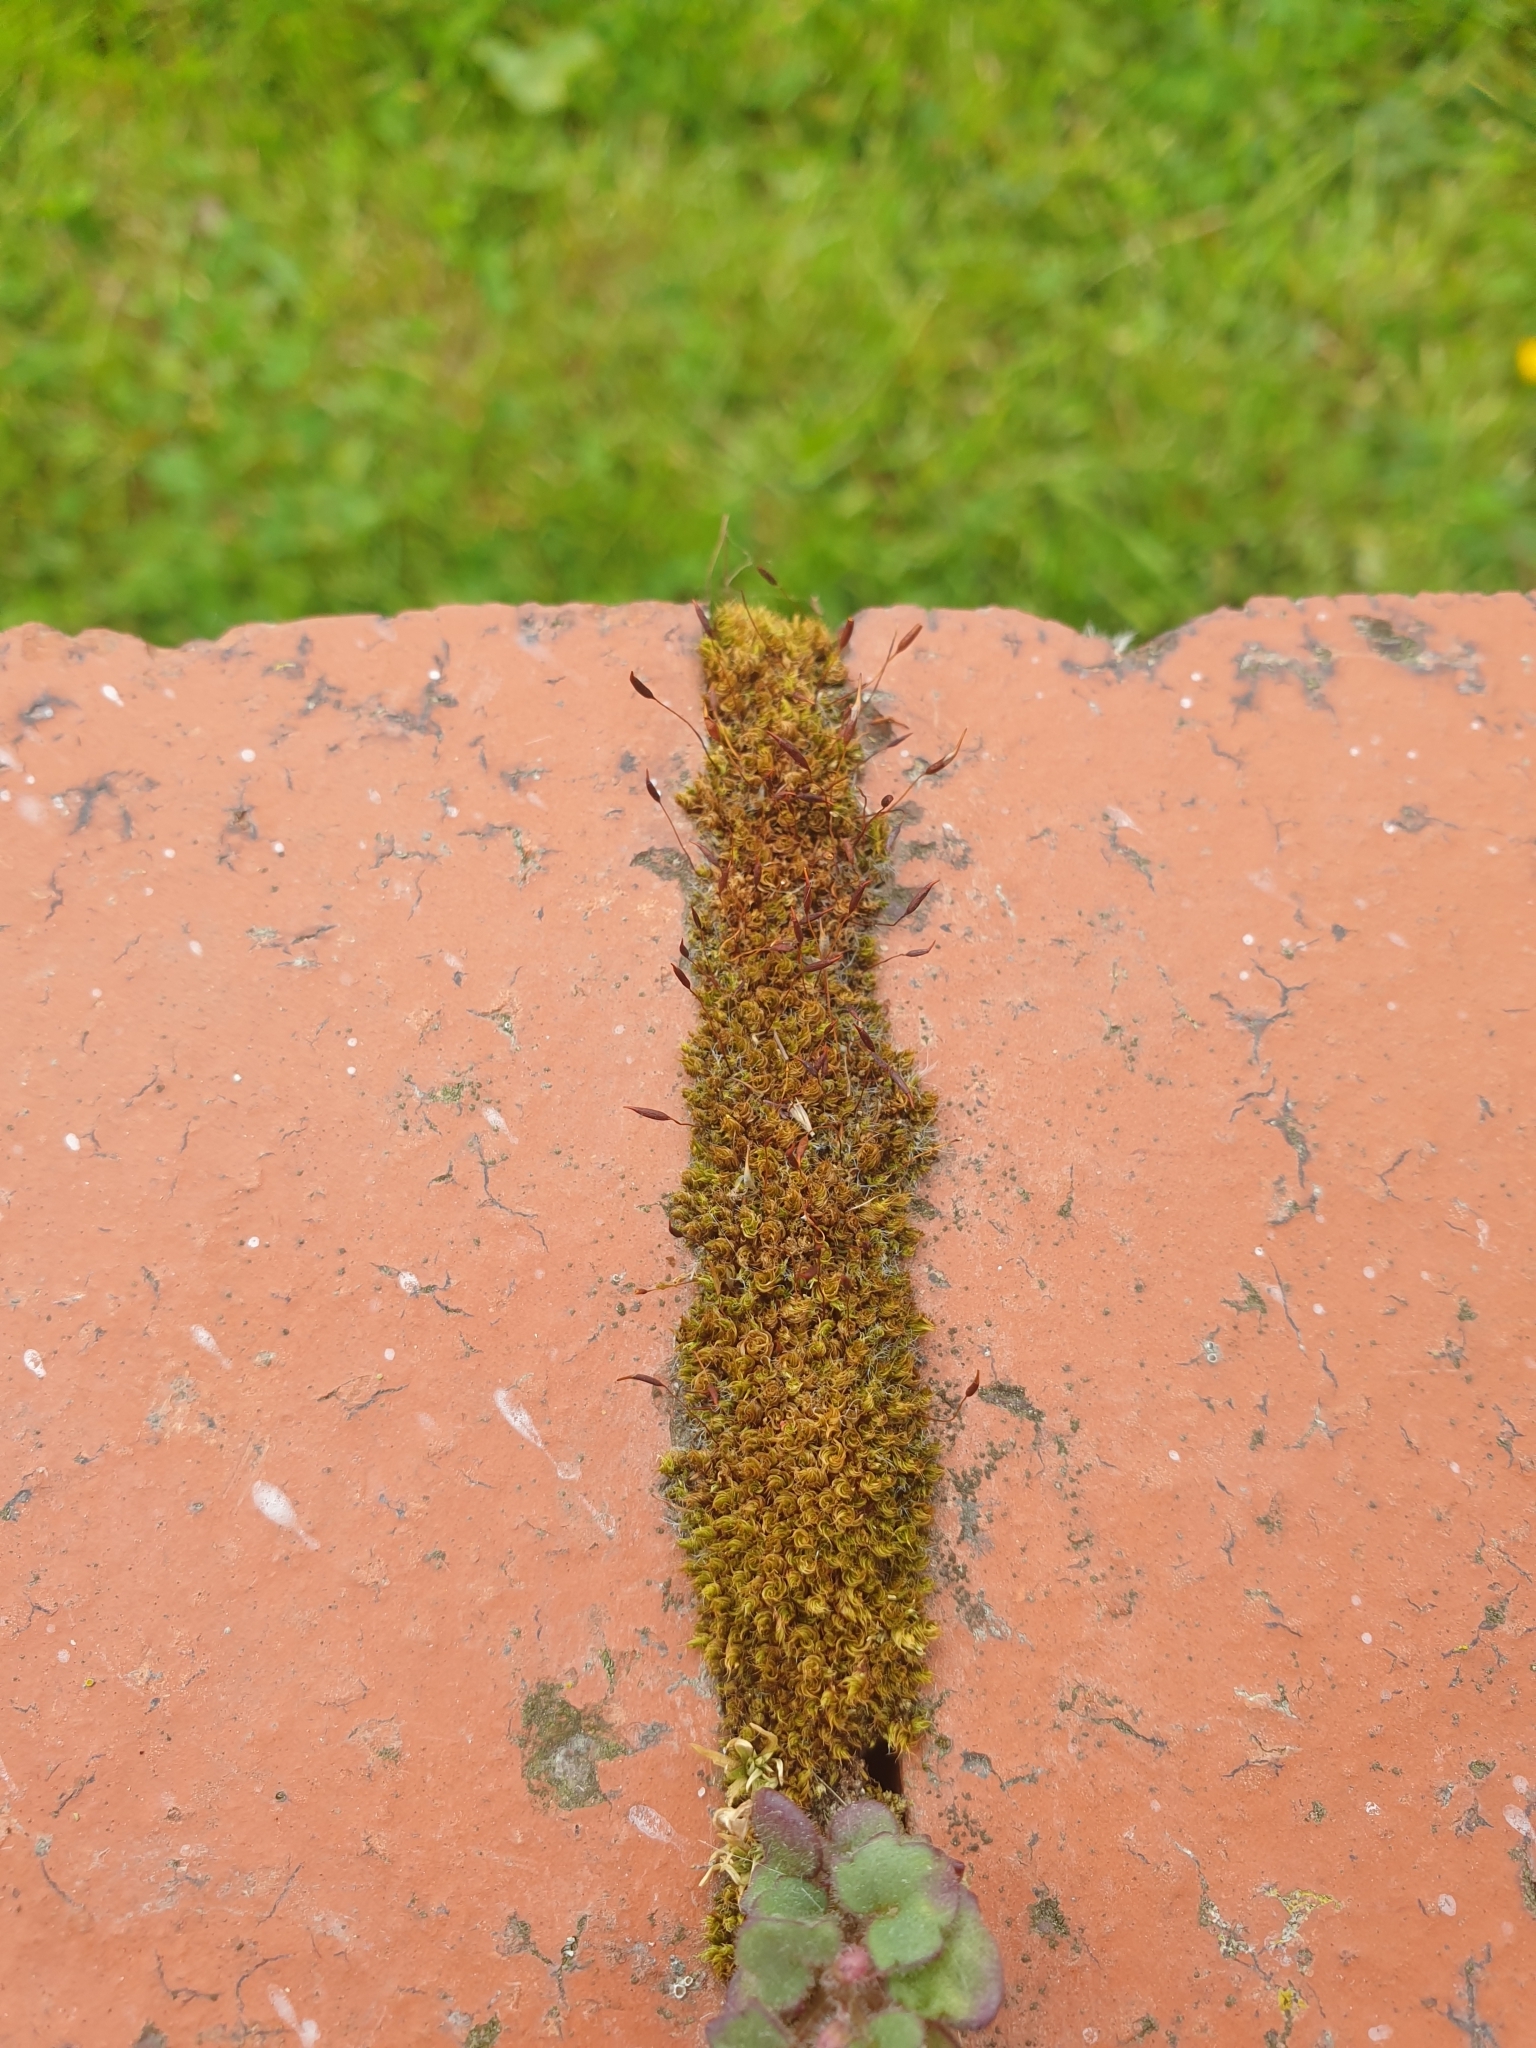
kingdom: Plantae
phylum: Bryophyta
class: Bryopsida
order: Pottiales
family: Pottiaceae
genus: Tortula
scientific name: Tortula muralis
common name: Wall screw-moss
